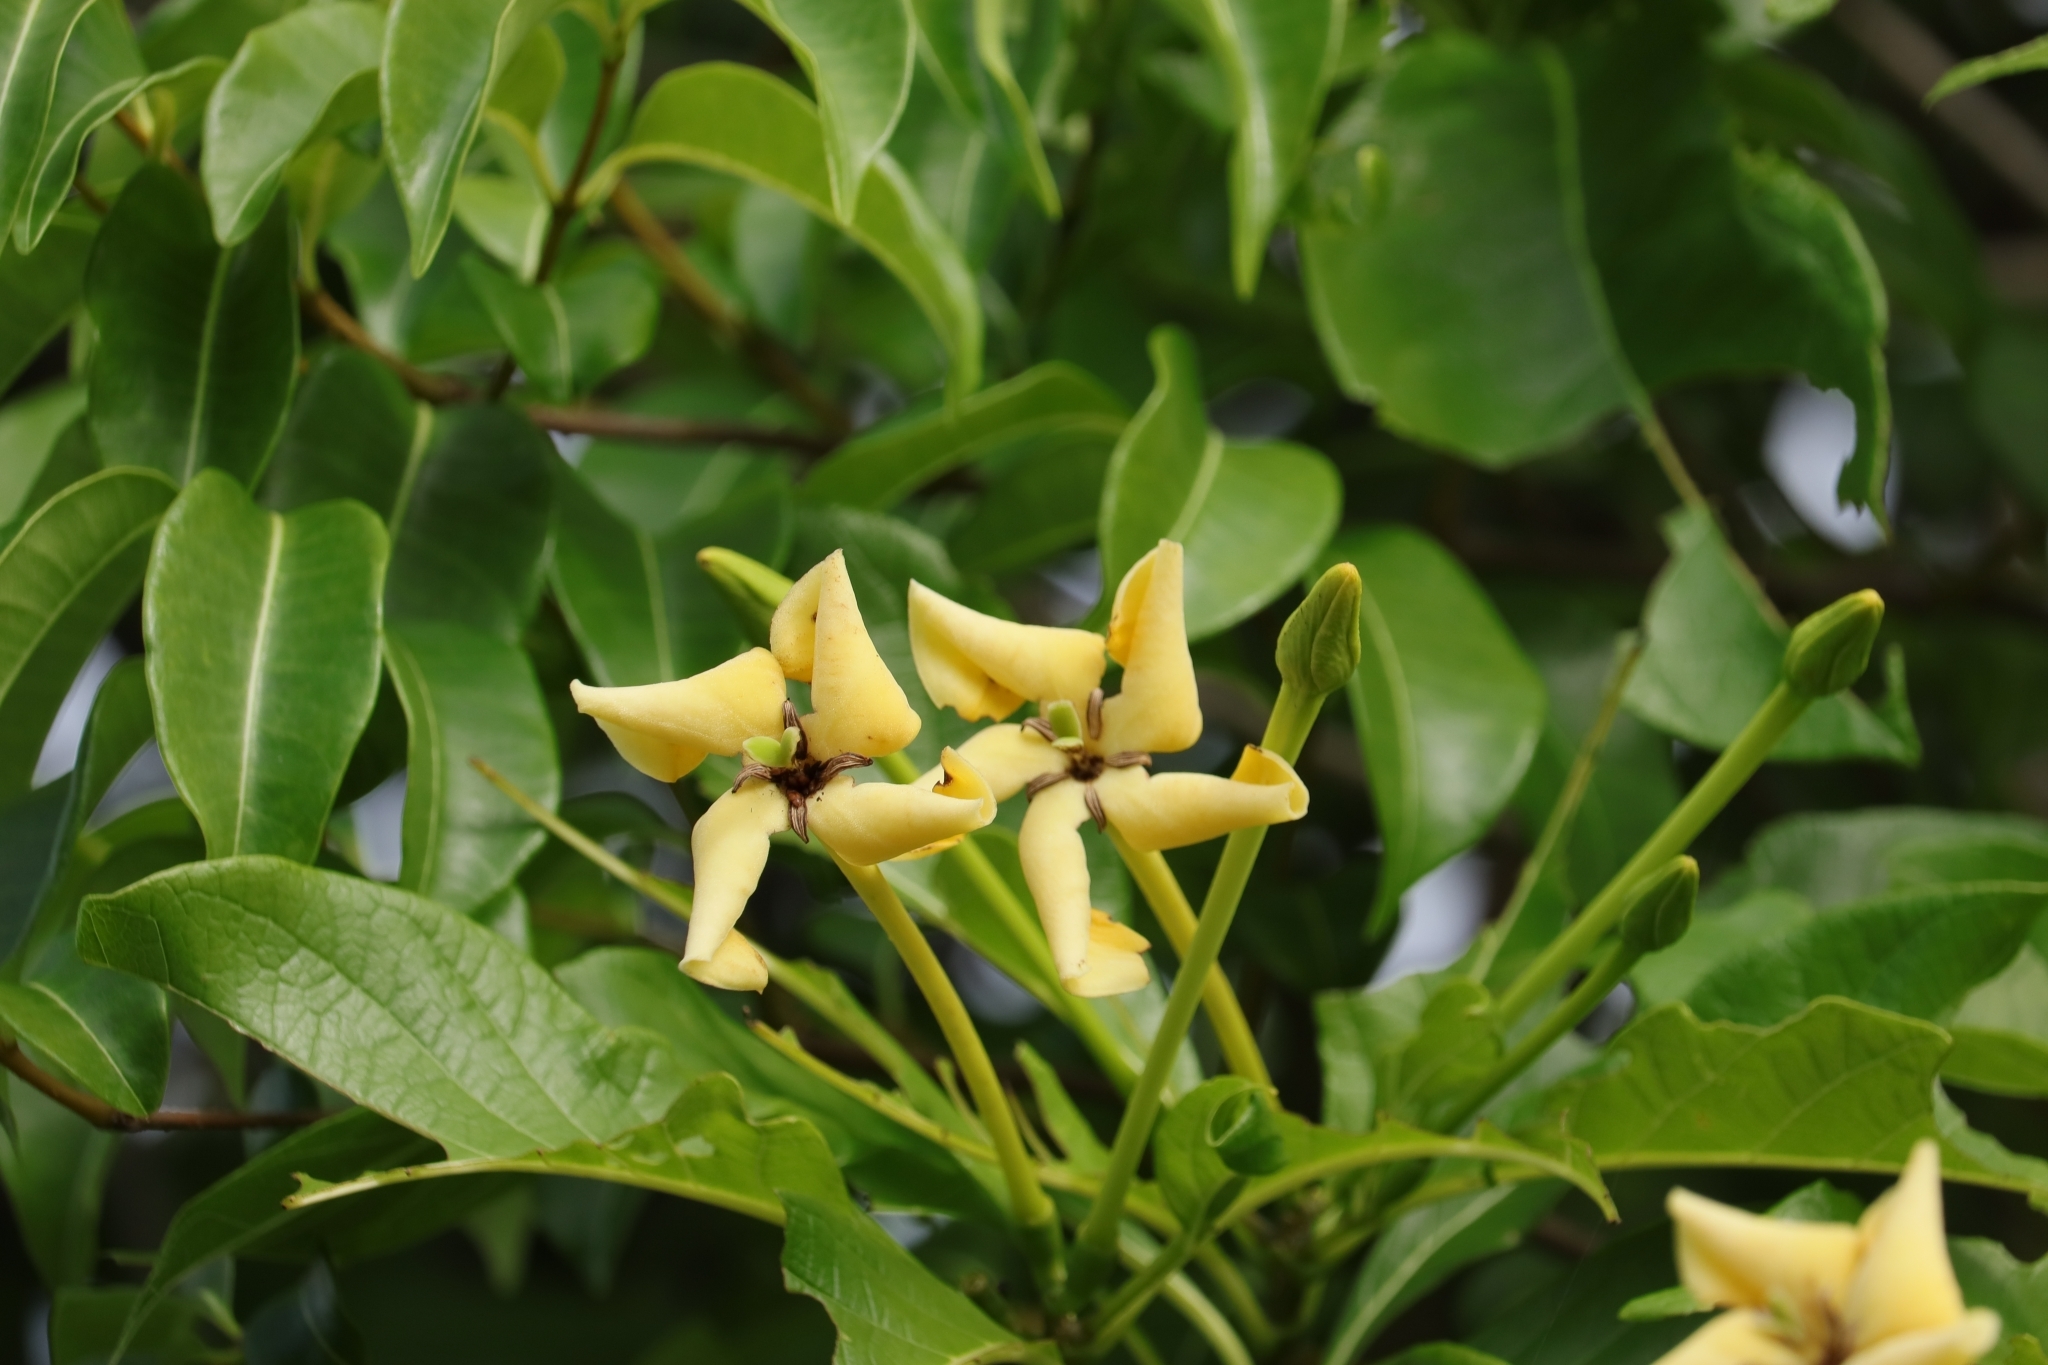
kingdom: Plantae
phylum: Tracheophyta
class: Magnoliopsida
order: Gentianales
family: Rubiaceae
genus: Tocoyena
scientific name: Tocoyena sellowiana
